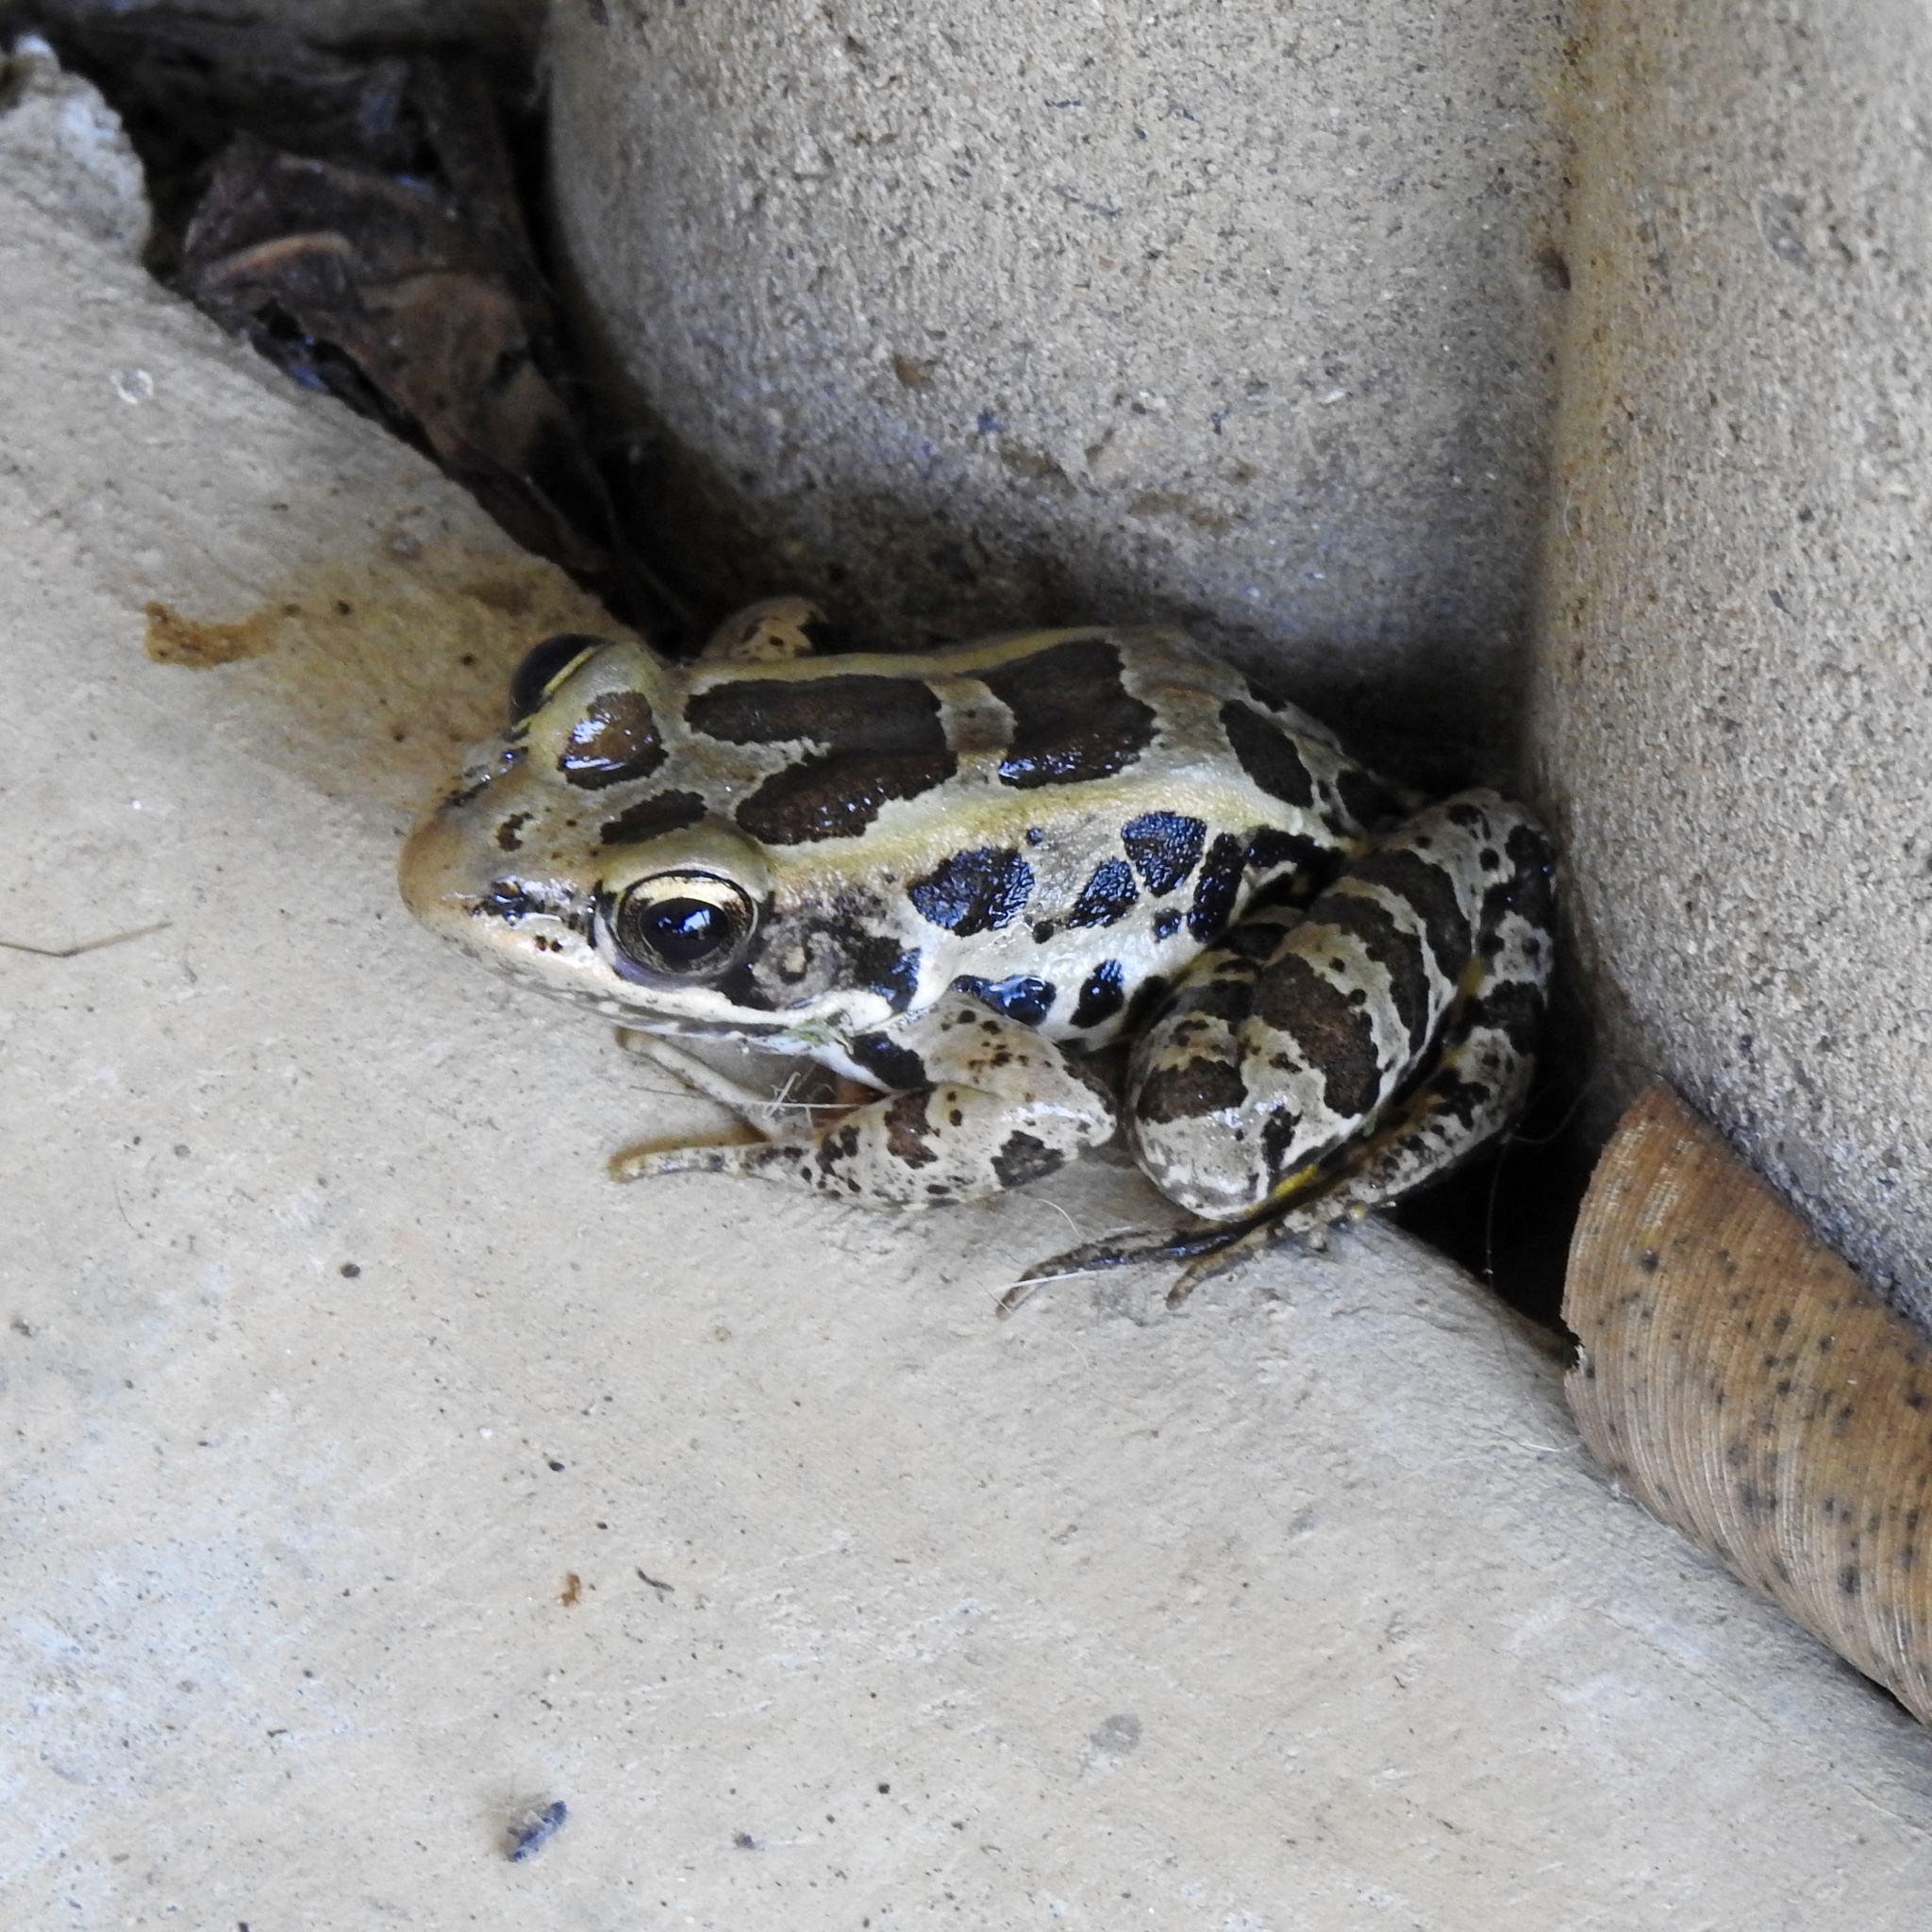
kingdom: Animalia
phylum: Chordata
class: Amphibia
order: Anura
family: Ranidae
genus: Lithobates
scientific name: Lithobates palustris
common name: Pickerel frog
